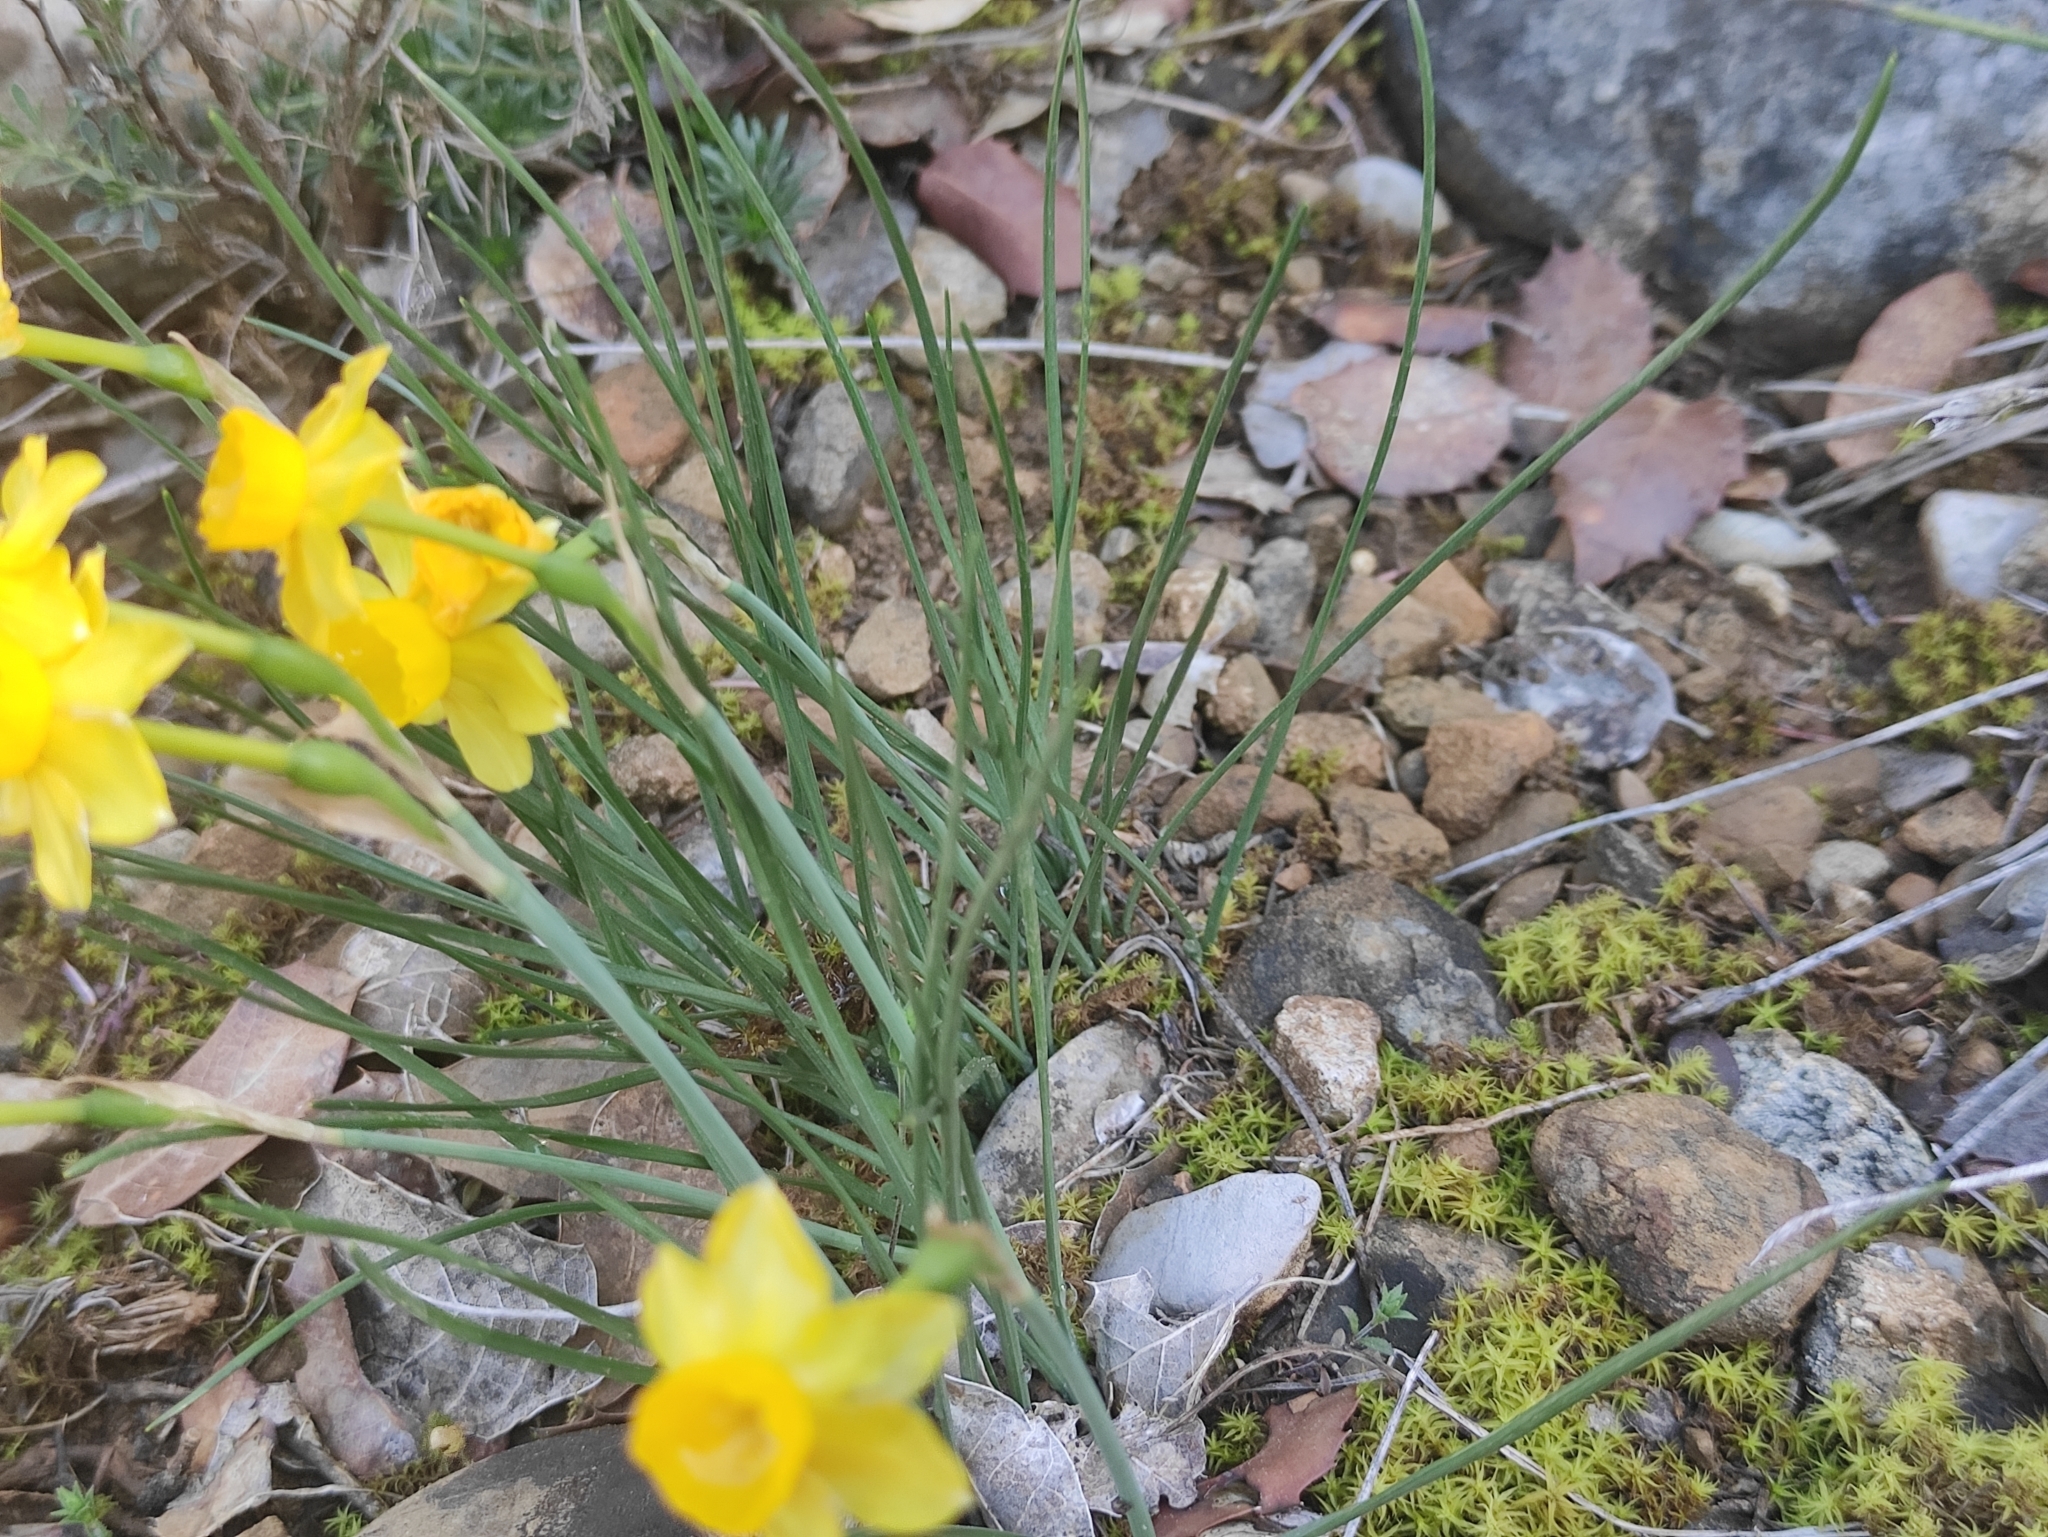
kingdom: Plantae
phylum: Tracheophyta
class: Liliopsida
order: Asparagales
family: Amaryllidaceae
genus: Narcissus
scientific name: Narcissus assoanus
